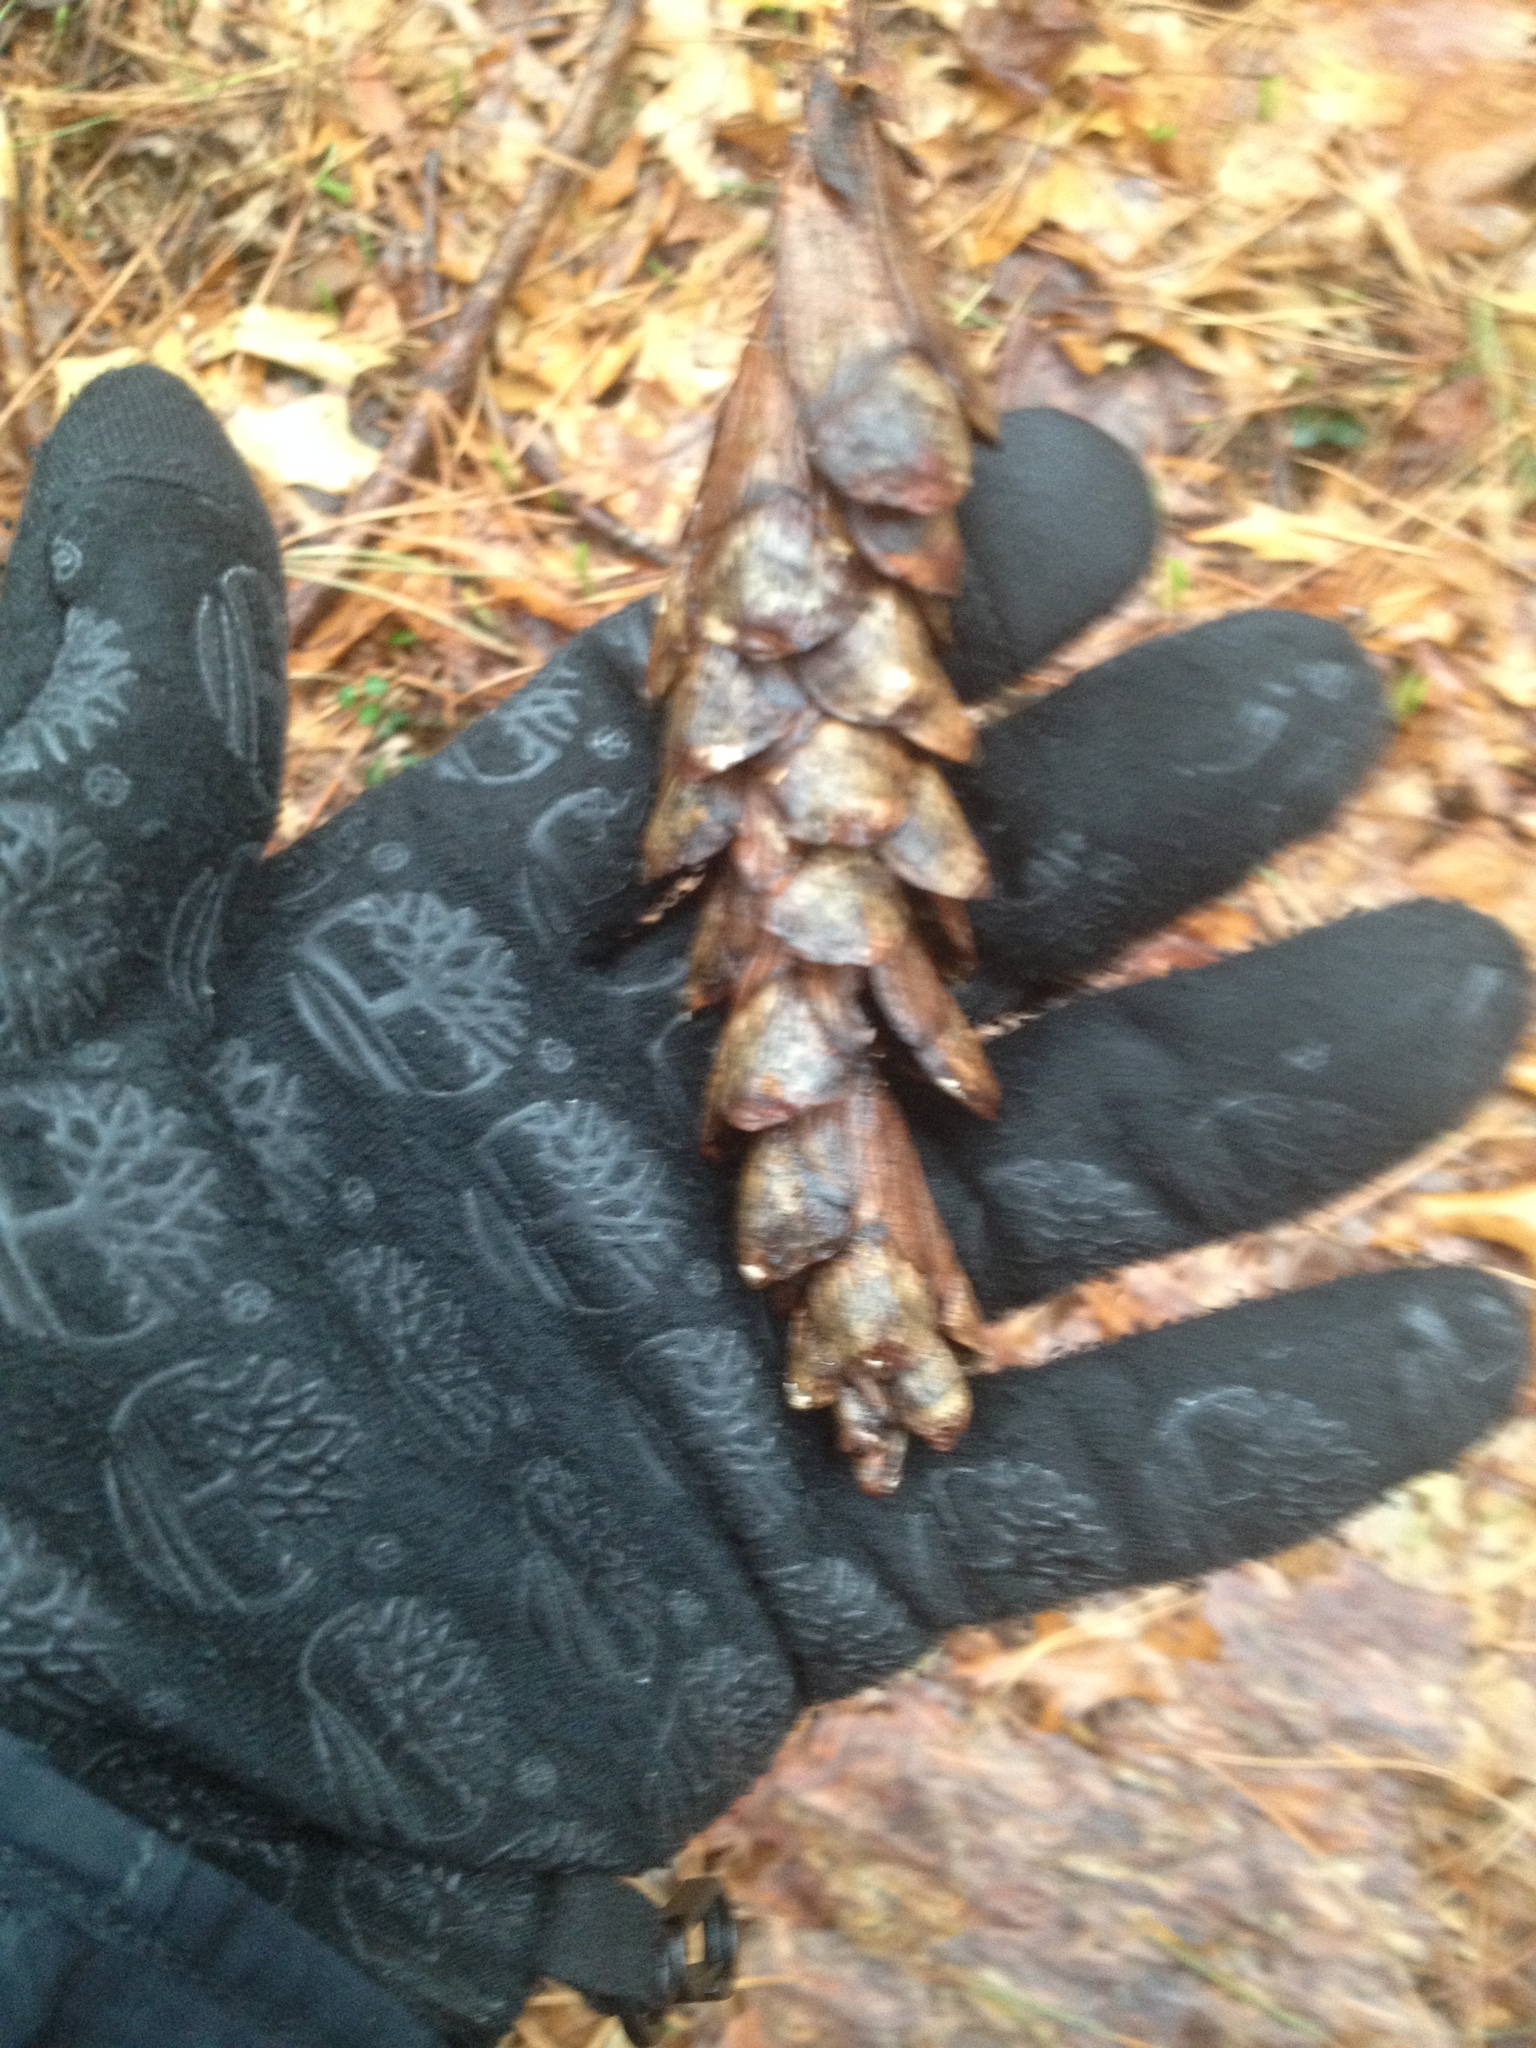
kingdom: Plantae
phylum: Tracheophyta
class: Pinopsida
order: Pinales
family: Pinaceae
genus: Pinus
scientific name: Pinus strobus
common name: Weymouth pine
